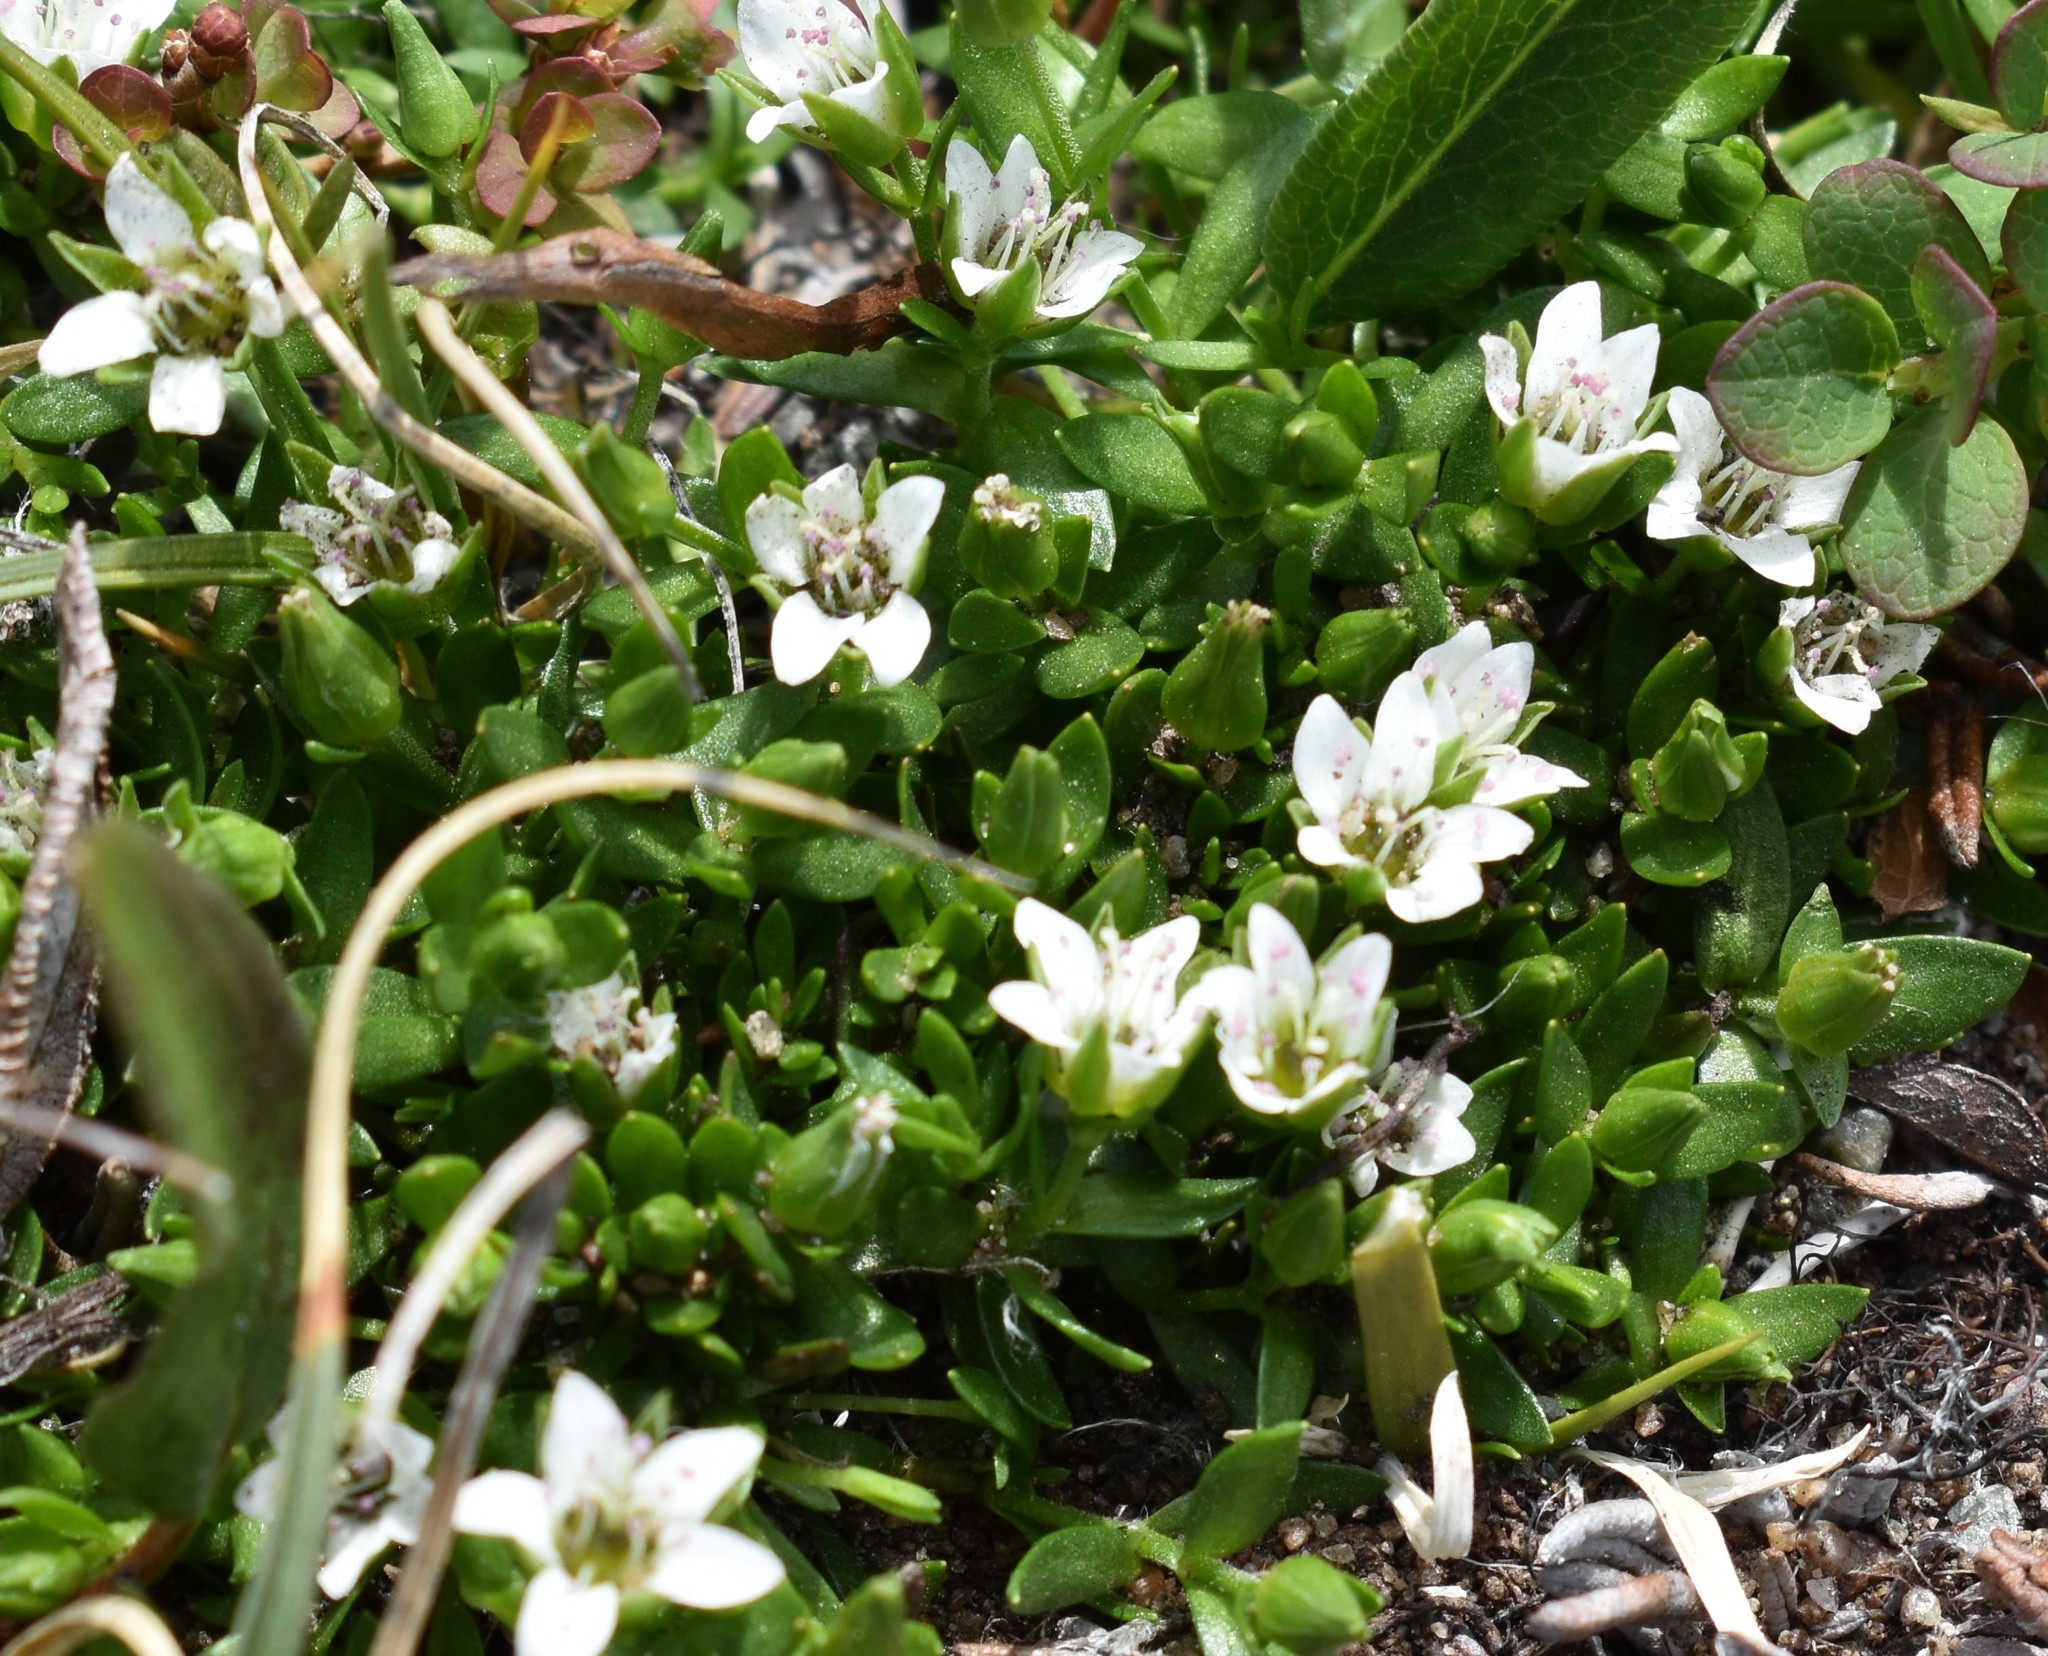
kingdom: Plantae
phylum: Tracheophyta
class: Magnoliopsida
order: Caryophyllales
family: Caryophyllaceae
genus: Arenaria
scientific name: Arenaria humifusa
